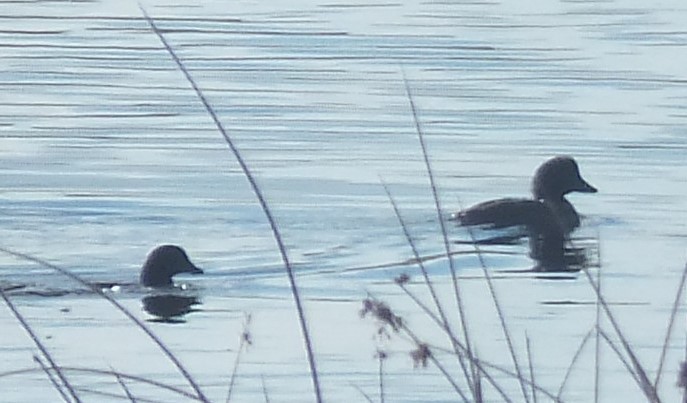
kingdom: Animalia
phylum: Chordata
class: Aves
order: Anseriformes
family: Anatidae
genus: Bucephala
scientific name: Bucephala islandica
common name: Barrow's goldeneye
